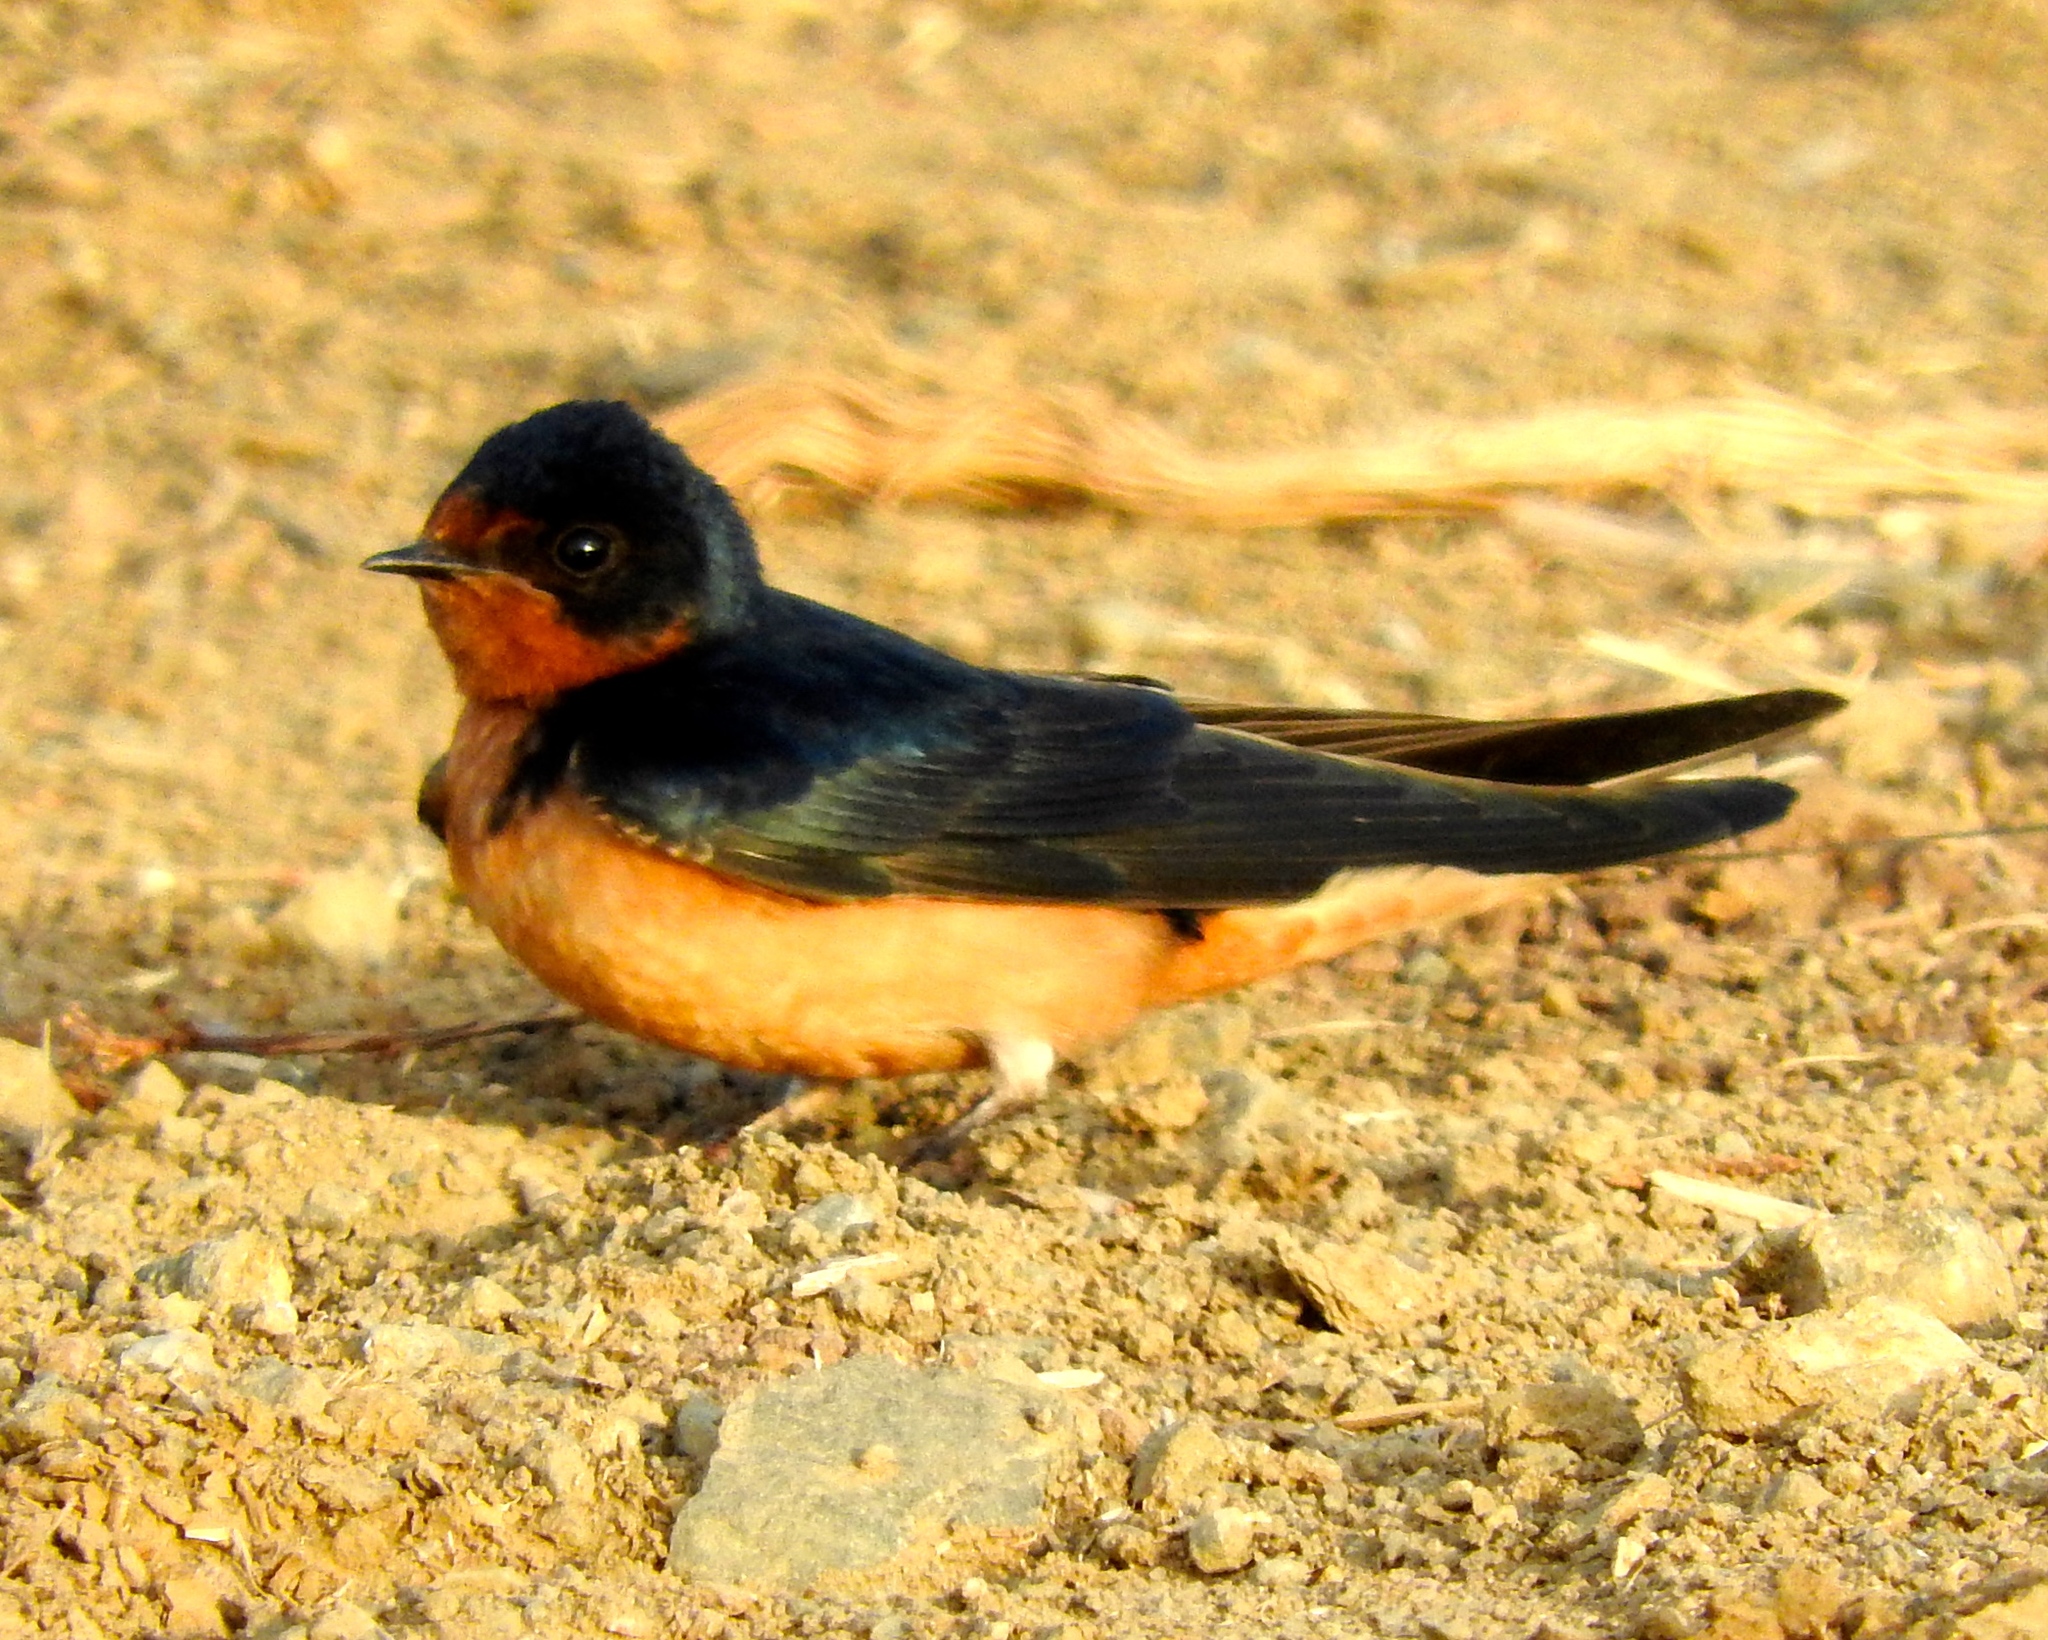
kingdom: Animalia
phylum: Chordata
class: Aves
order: Passeriformes
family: Hirundinidae
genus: Hirundo
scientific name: Hirundo rustica
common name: Barn swallow
